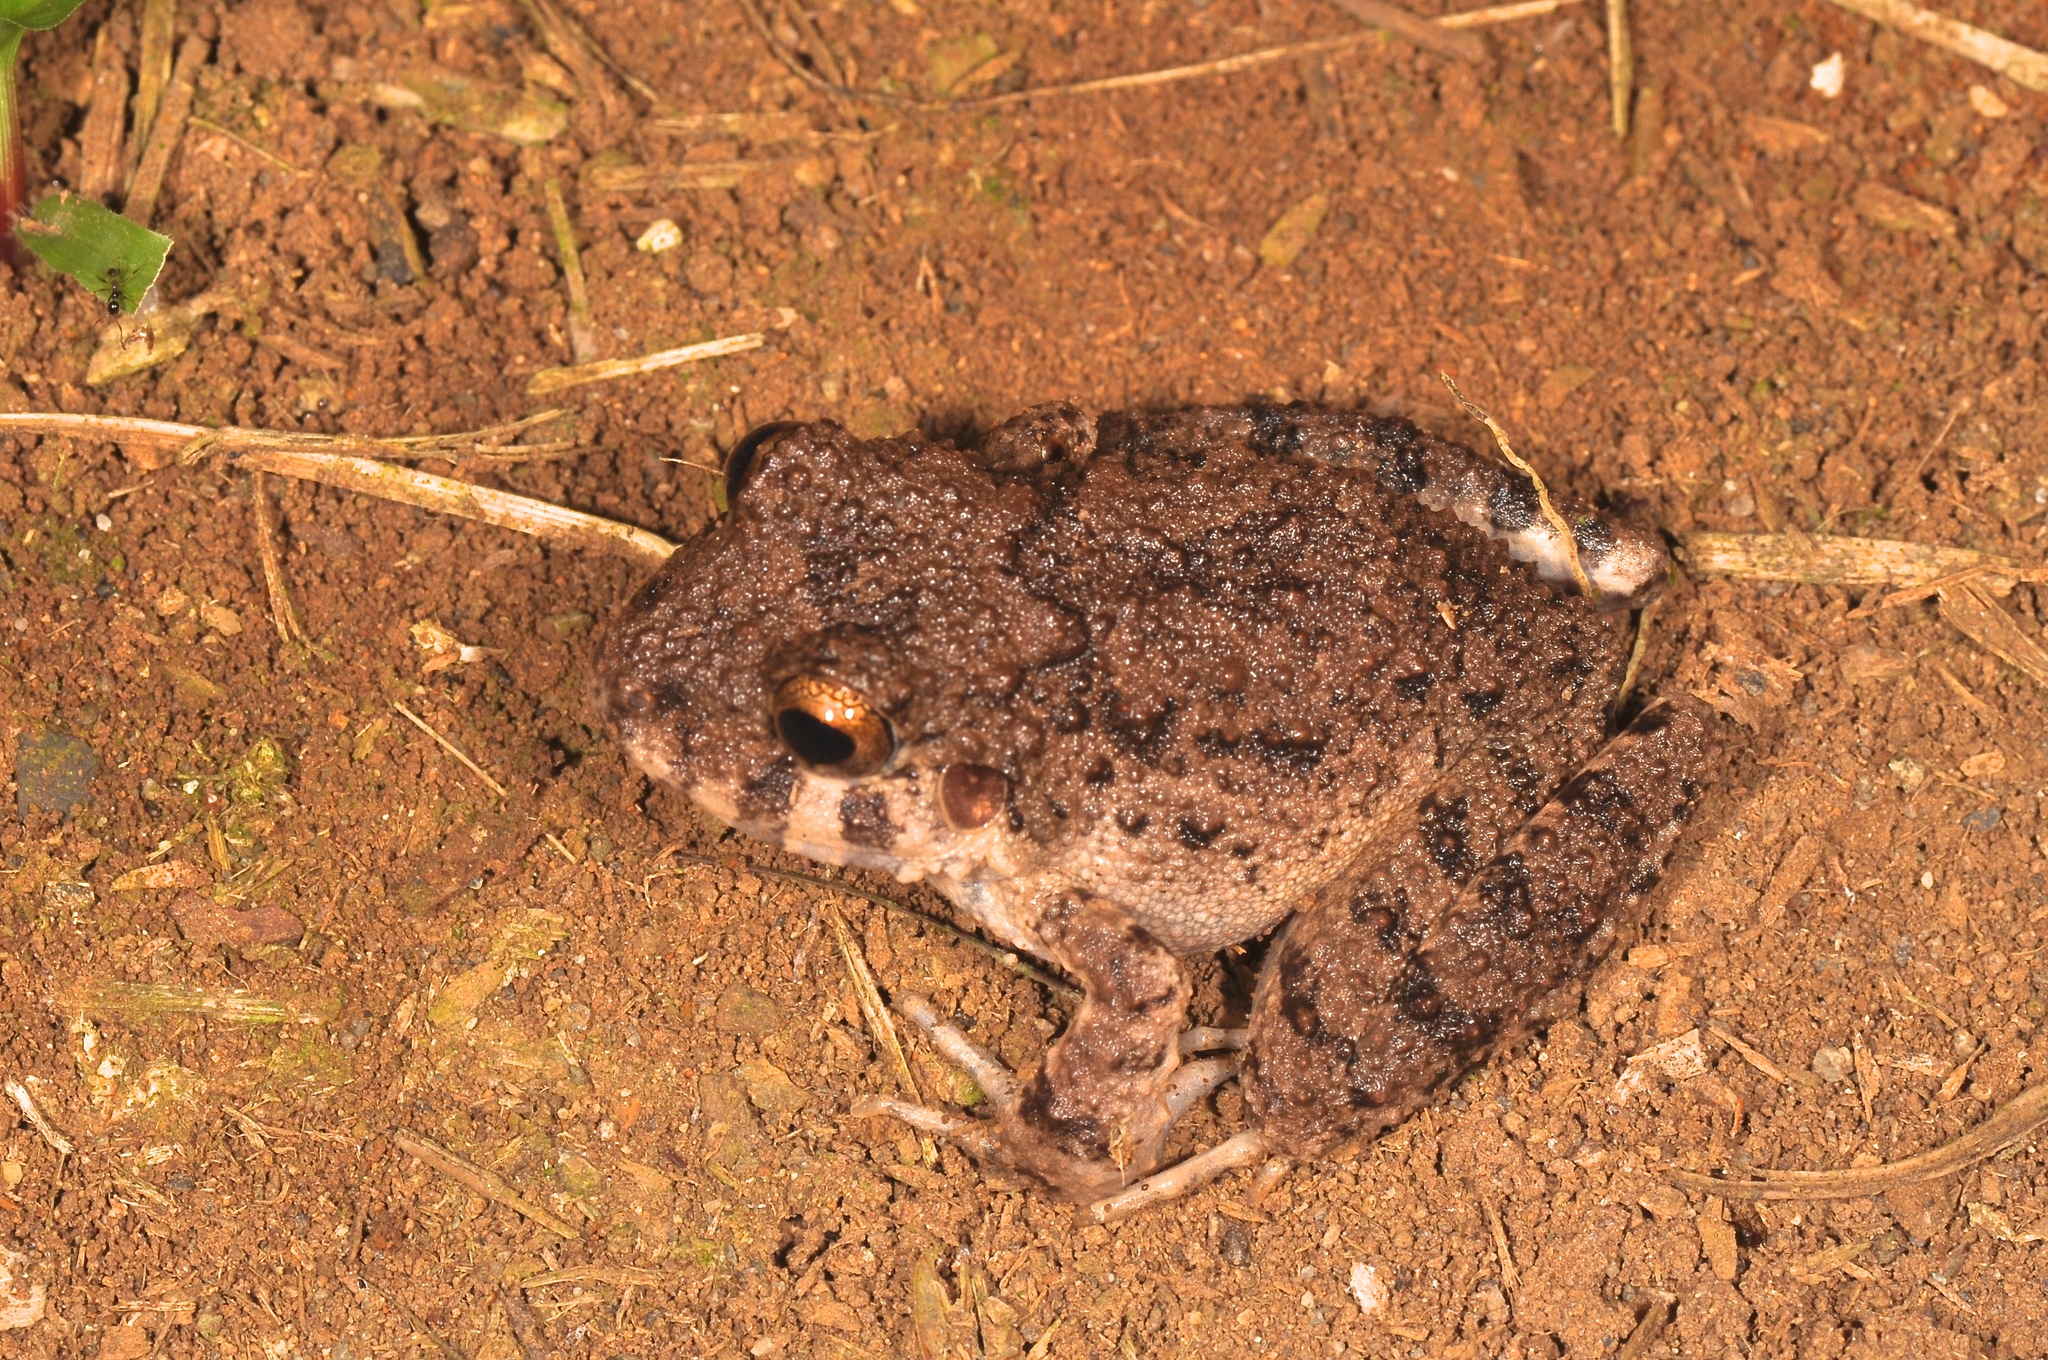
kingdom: Animalia
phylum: Chordata
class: Amphibia
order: Anura
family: Craugastoridae
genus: Oreobates
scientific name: Oreobates quixensis
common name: Common big-headed frog
